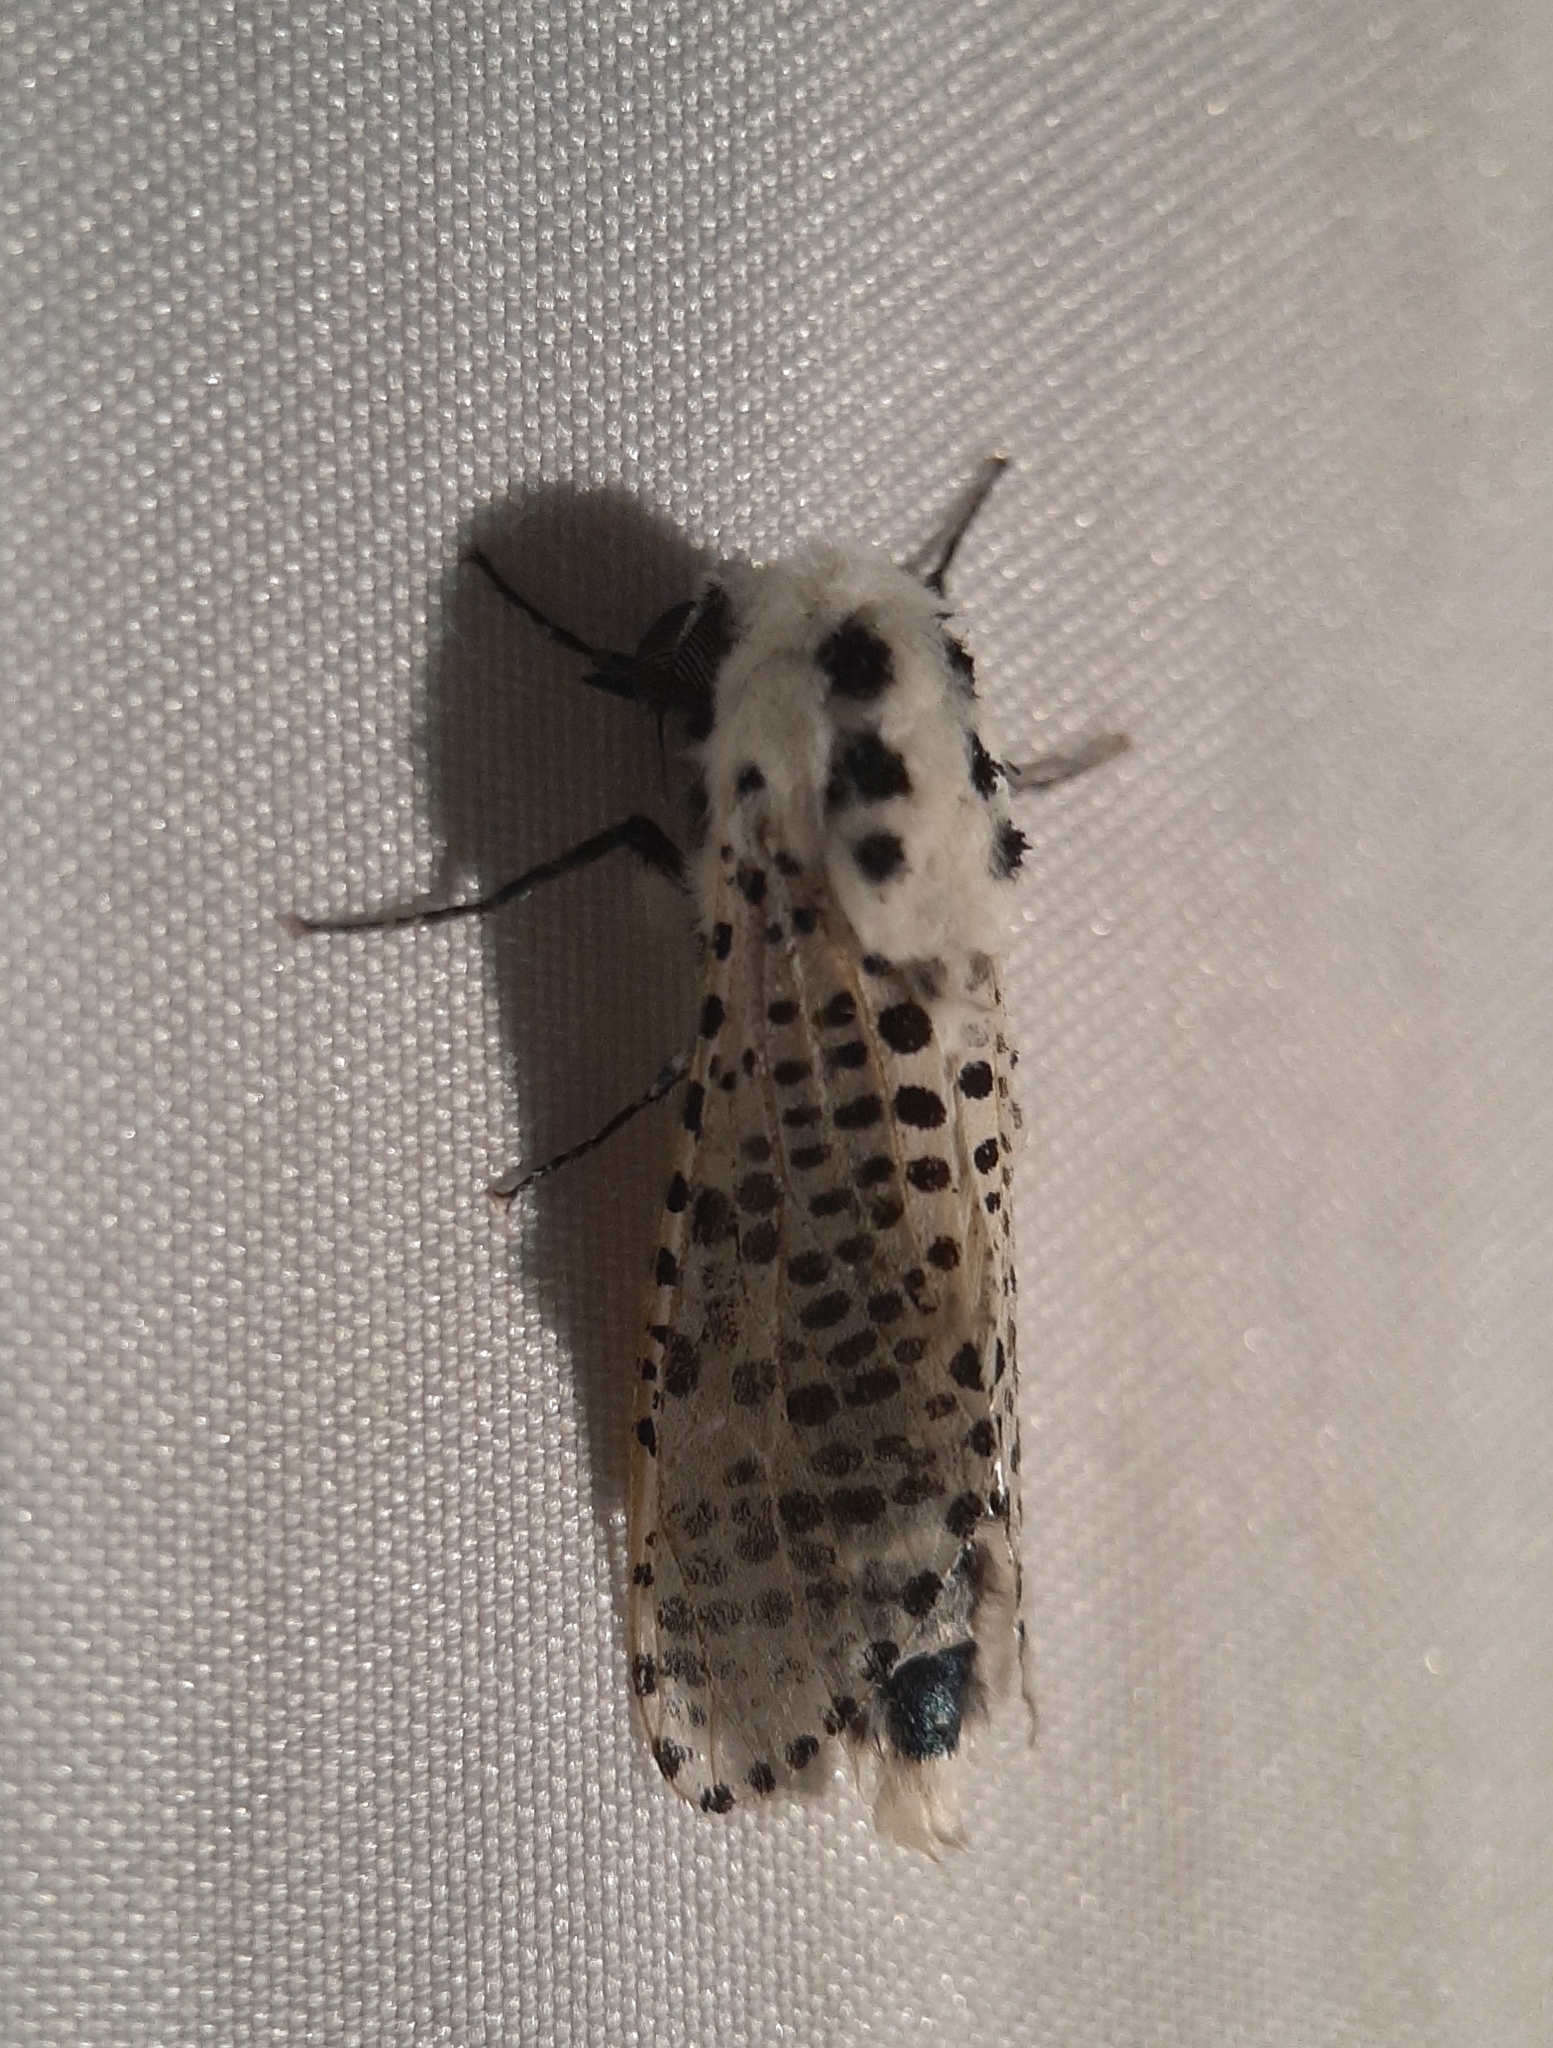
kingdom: Animalia
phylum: Arthropoda
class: Insecta
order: Lepidoptera
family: Cossidae
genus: Zeuzera
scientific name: Zeuzera pyrina
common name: Leopard moth
